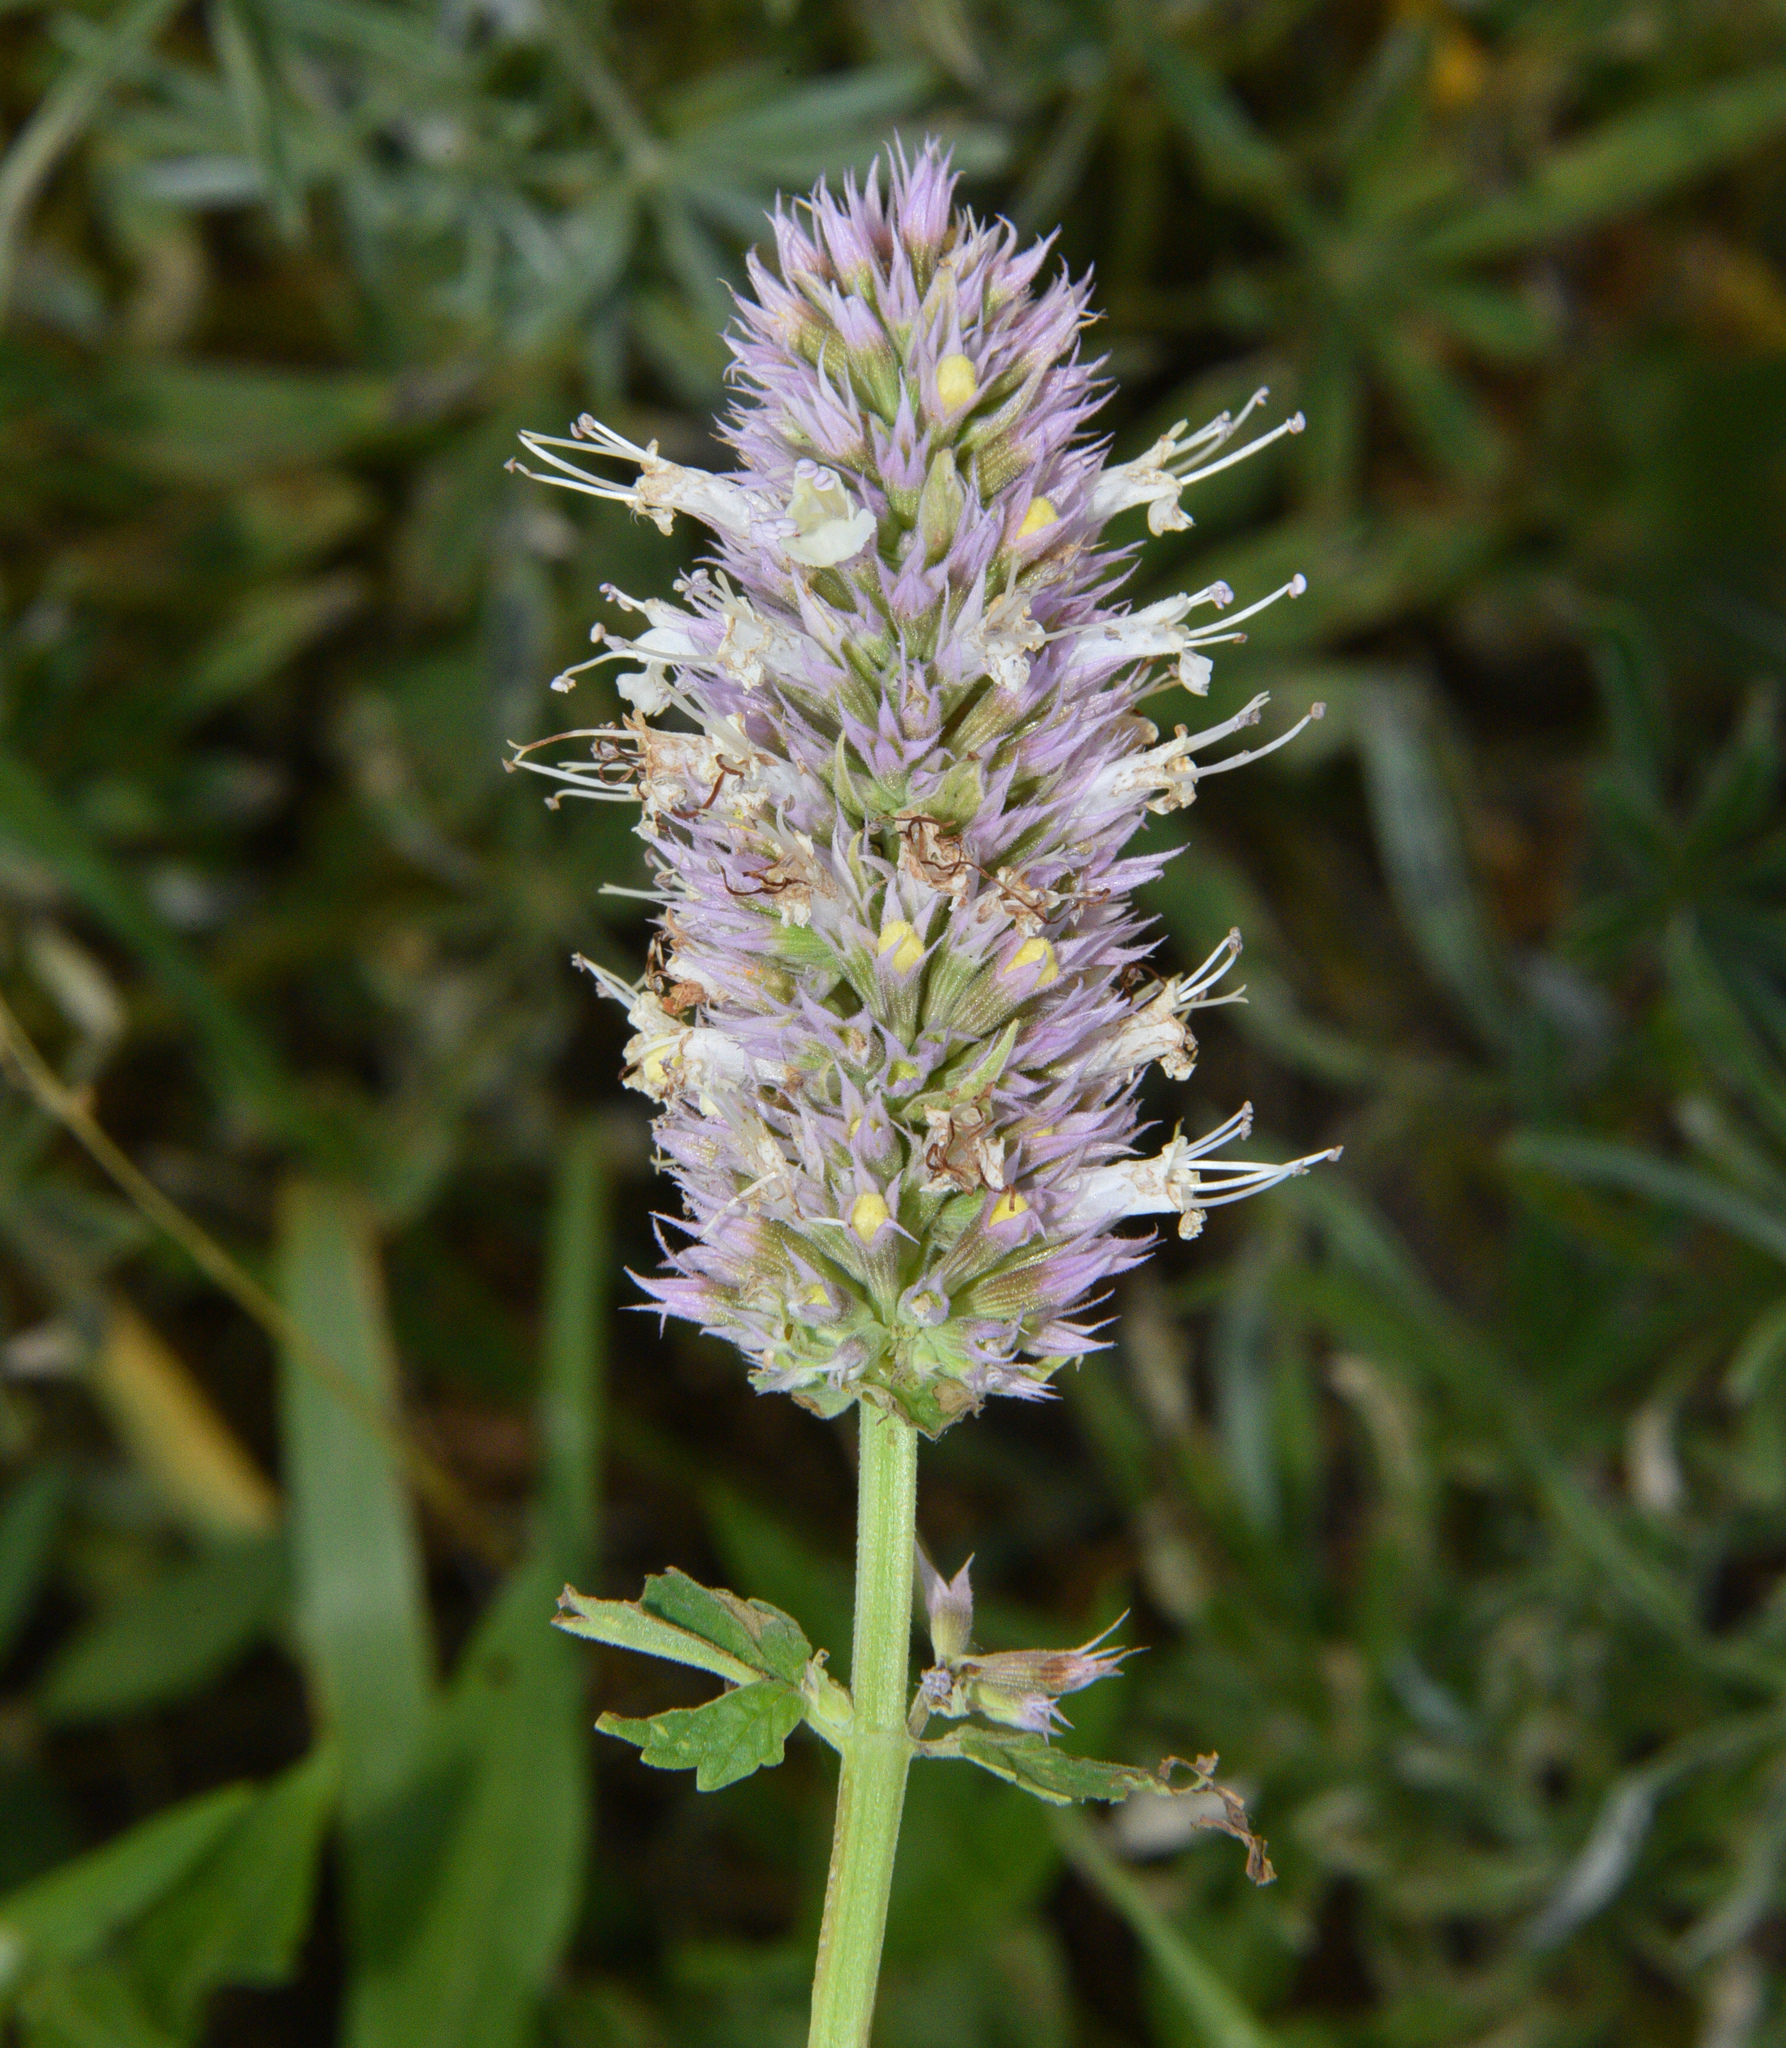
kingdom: Plantae
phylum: Tracheophyta
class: Magnoliopsida
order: Lamiales
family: Lamiaceae
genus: Agastache
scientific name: Agastache urticifolia
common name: Horsemint giant hyssop
